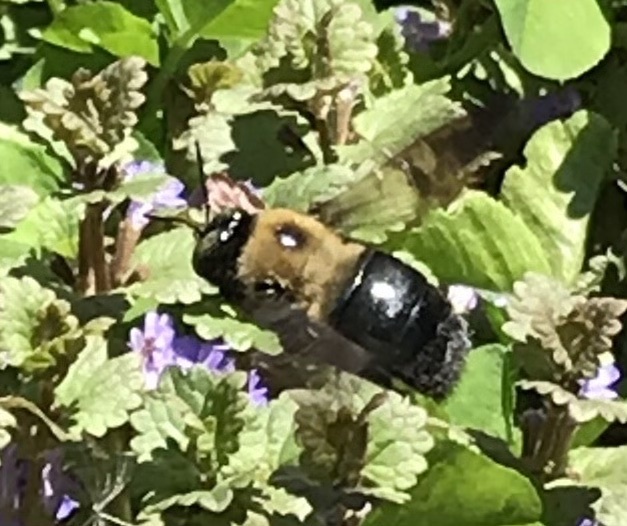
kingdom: Animalia
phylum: Arthropoda
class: Insecta
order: Hymenoptera
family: Apidae
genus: Xylocopa
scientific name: Xylocopa virginica
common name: Carpenter bee
